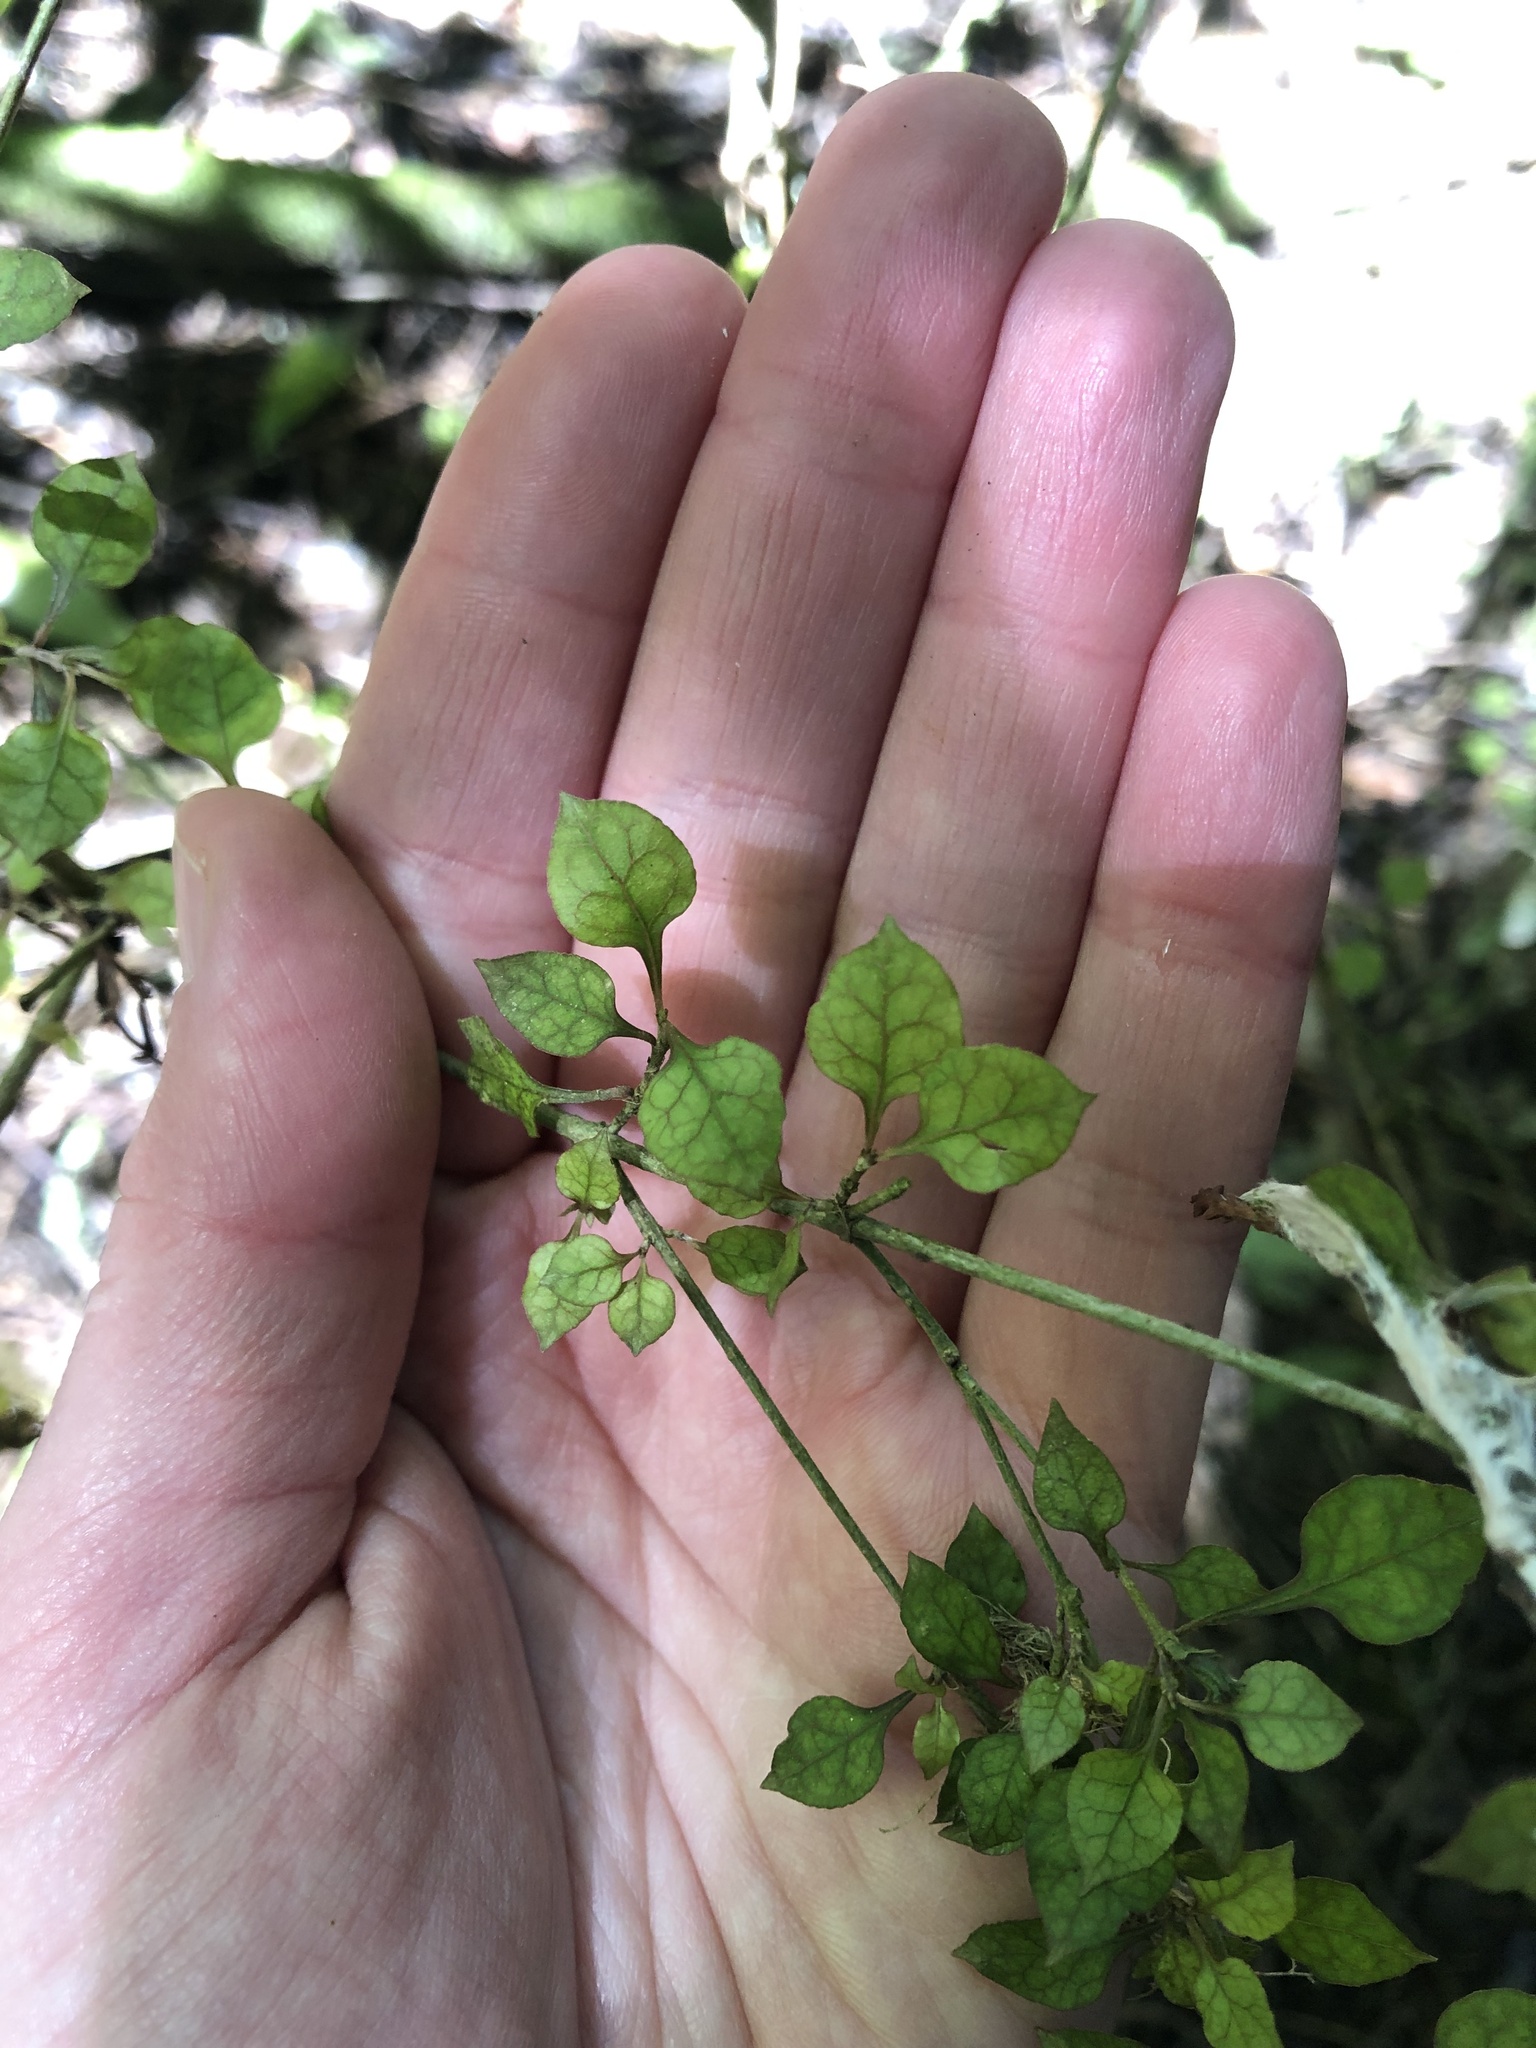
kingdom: Plantae
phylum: Tracheophyta
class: Magnoliopsida
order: Gentianales
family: Rubiaceae
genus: Coprosma
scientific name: Coprosma areolata
